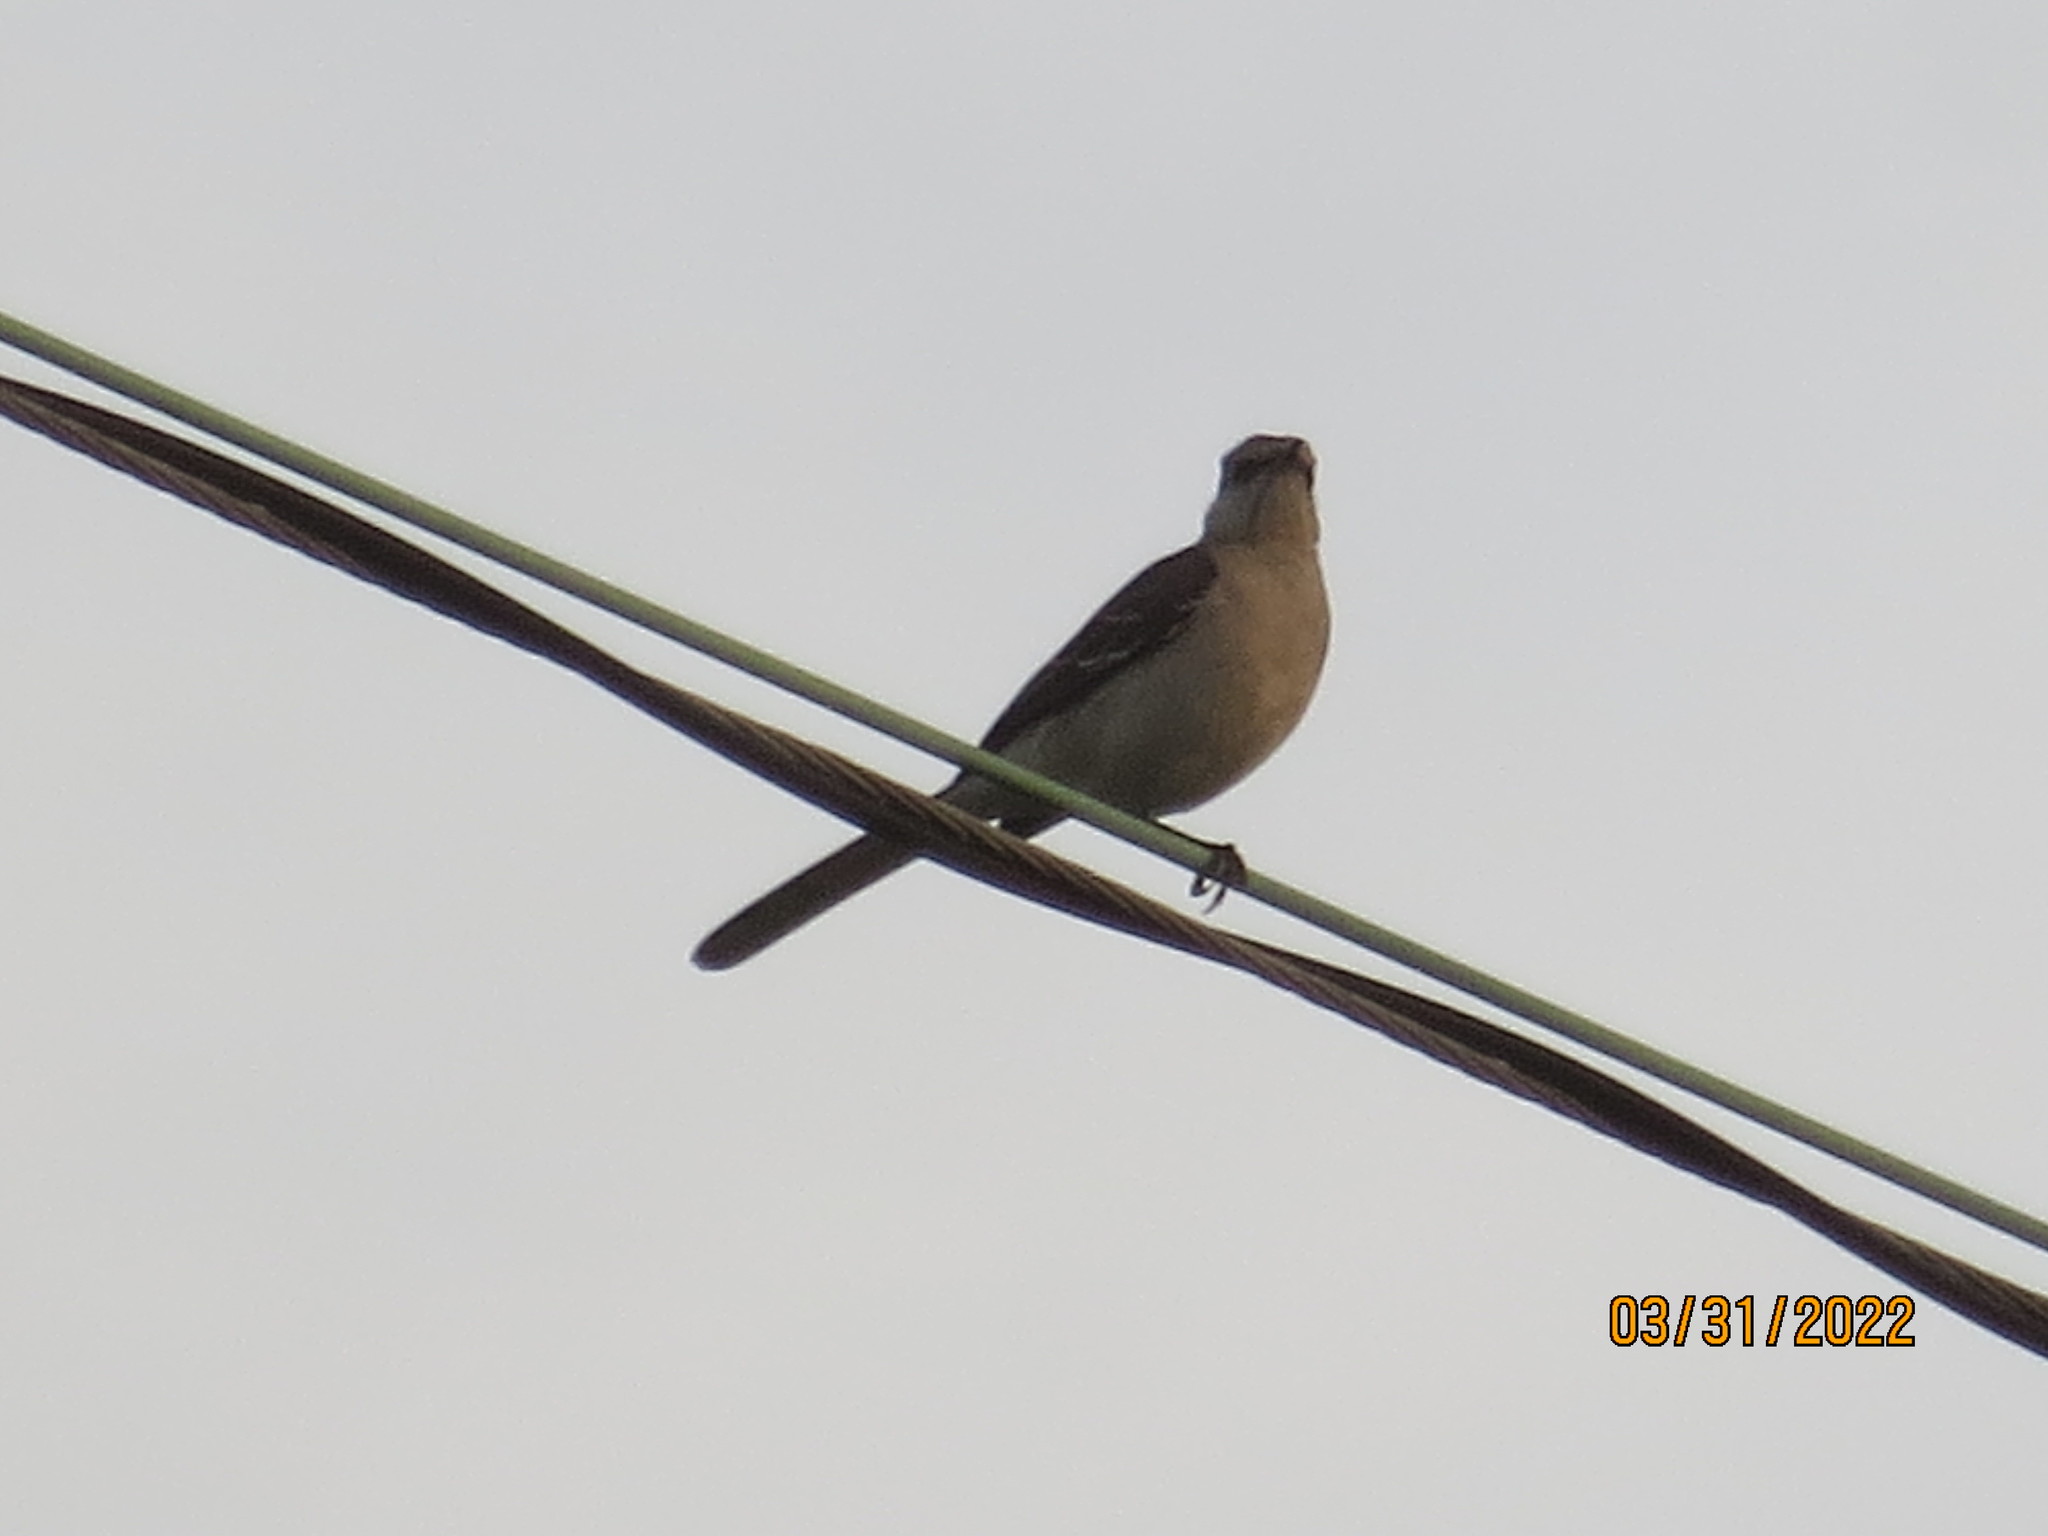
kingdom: Animalia
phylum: Chordata
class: Aves
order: Passeriformes
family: Mimidae
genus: Mimus
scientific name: Mimus polyglottos
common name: Northern mockingbird
